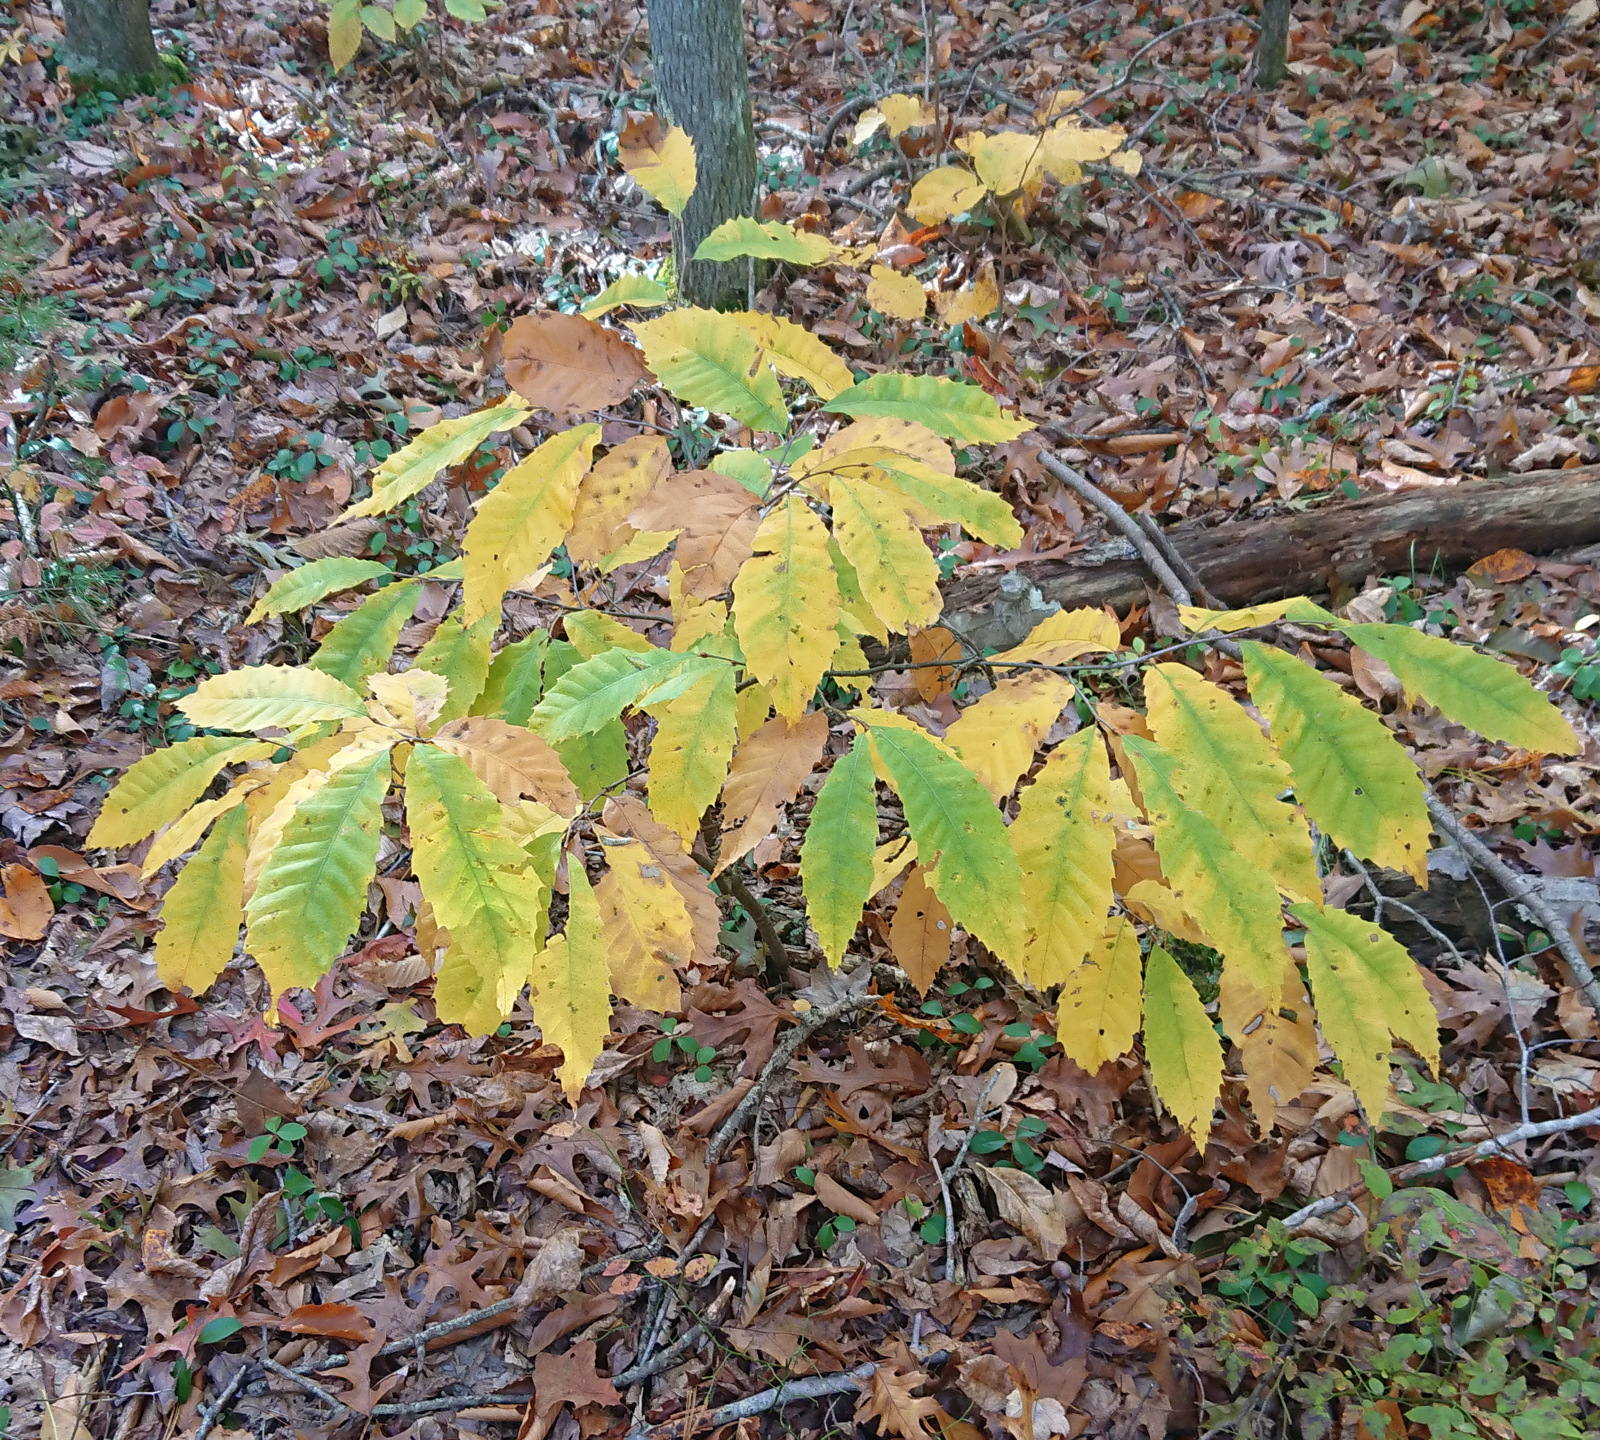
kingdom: Plantae
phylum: Tracheophyta
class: Magnoliopsida
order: Fagales
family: Fagaceae
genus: Castanea
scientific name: Castanea dentata
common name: American chestnut
